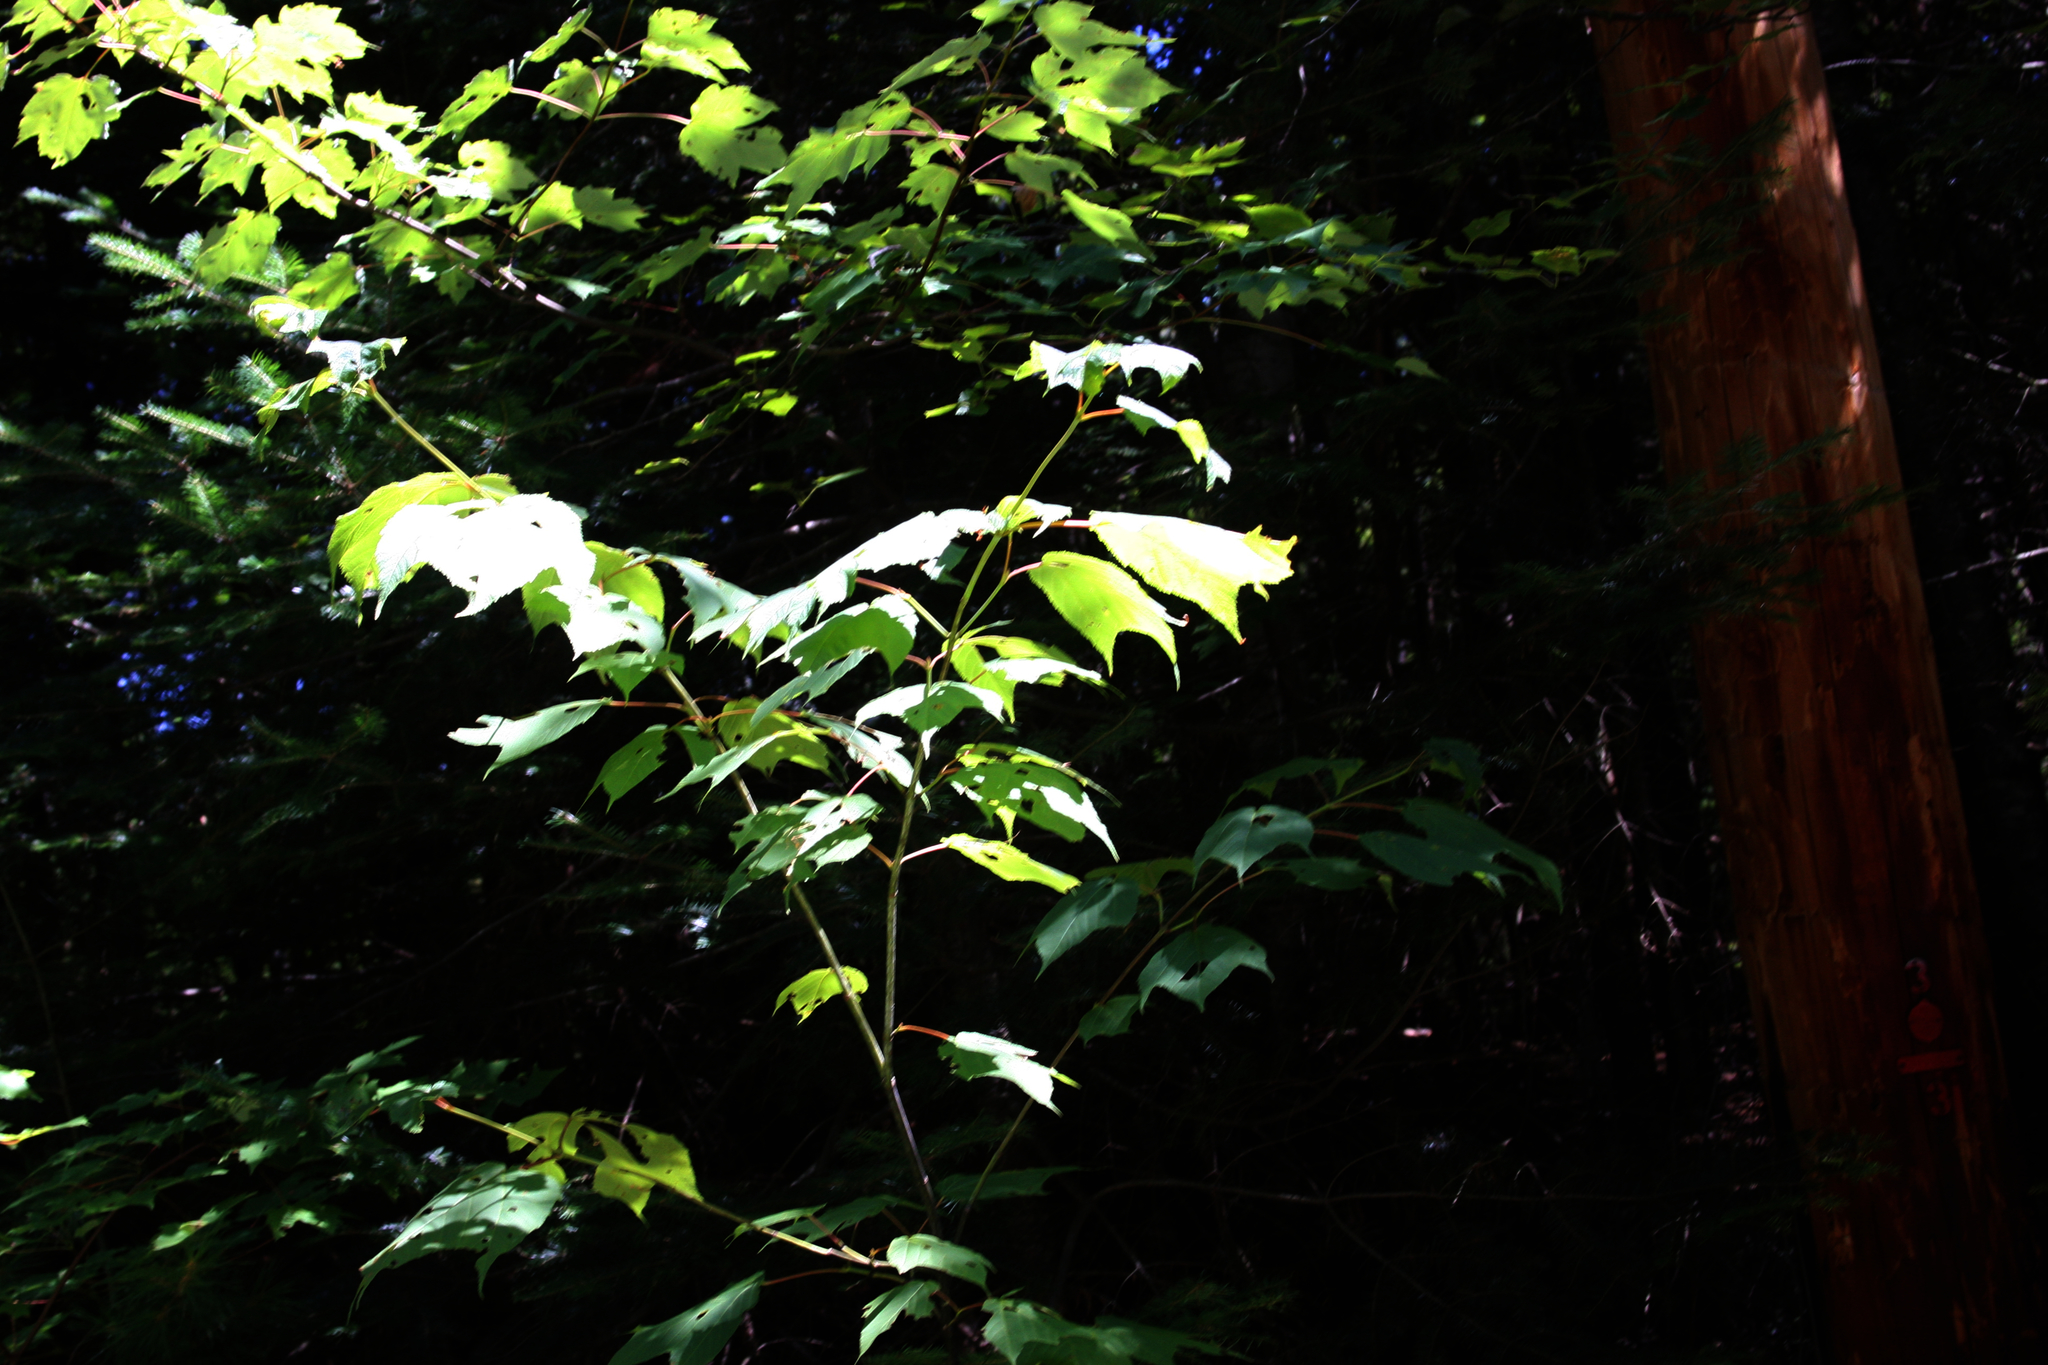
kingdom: Plantae
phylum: Tracheophyta
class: Magnoliopsida
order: Sapindales
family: Sapindaceae
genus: Acer
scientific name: Acer pensylvanicum
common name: Moosewood
